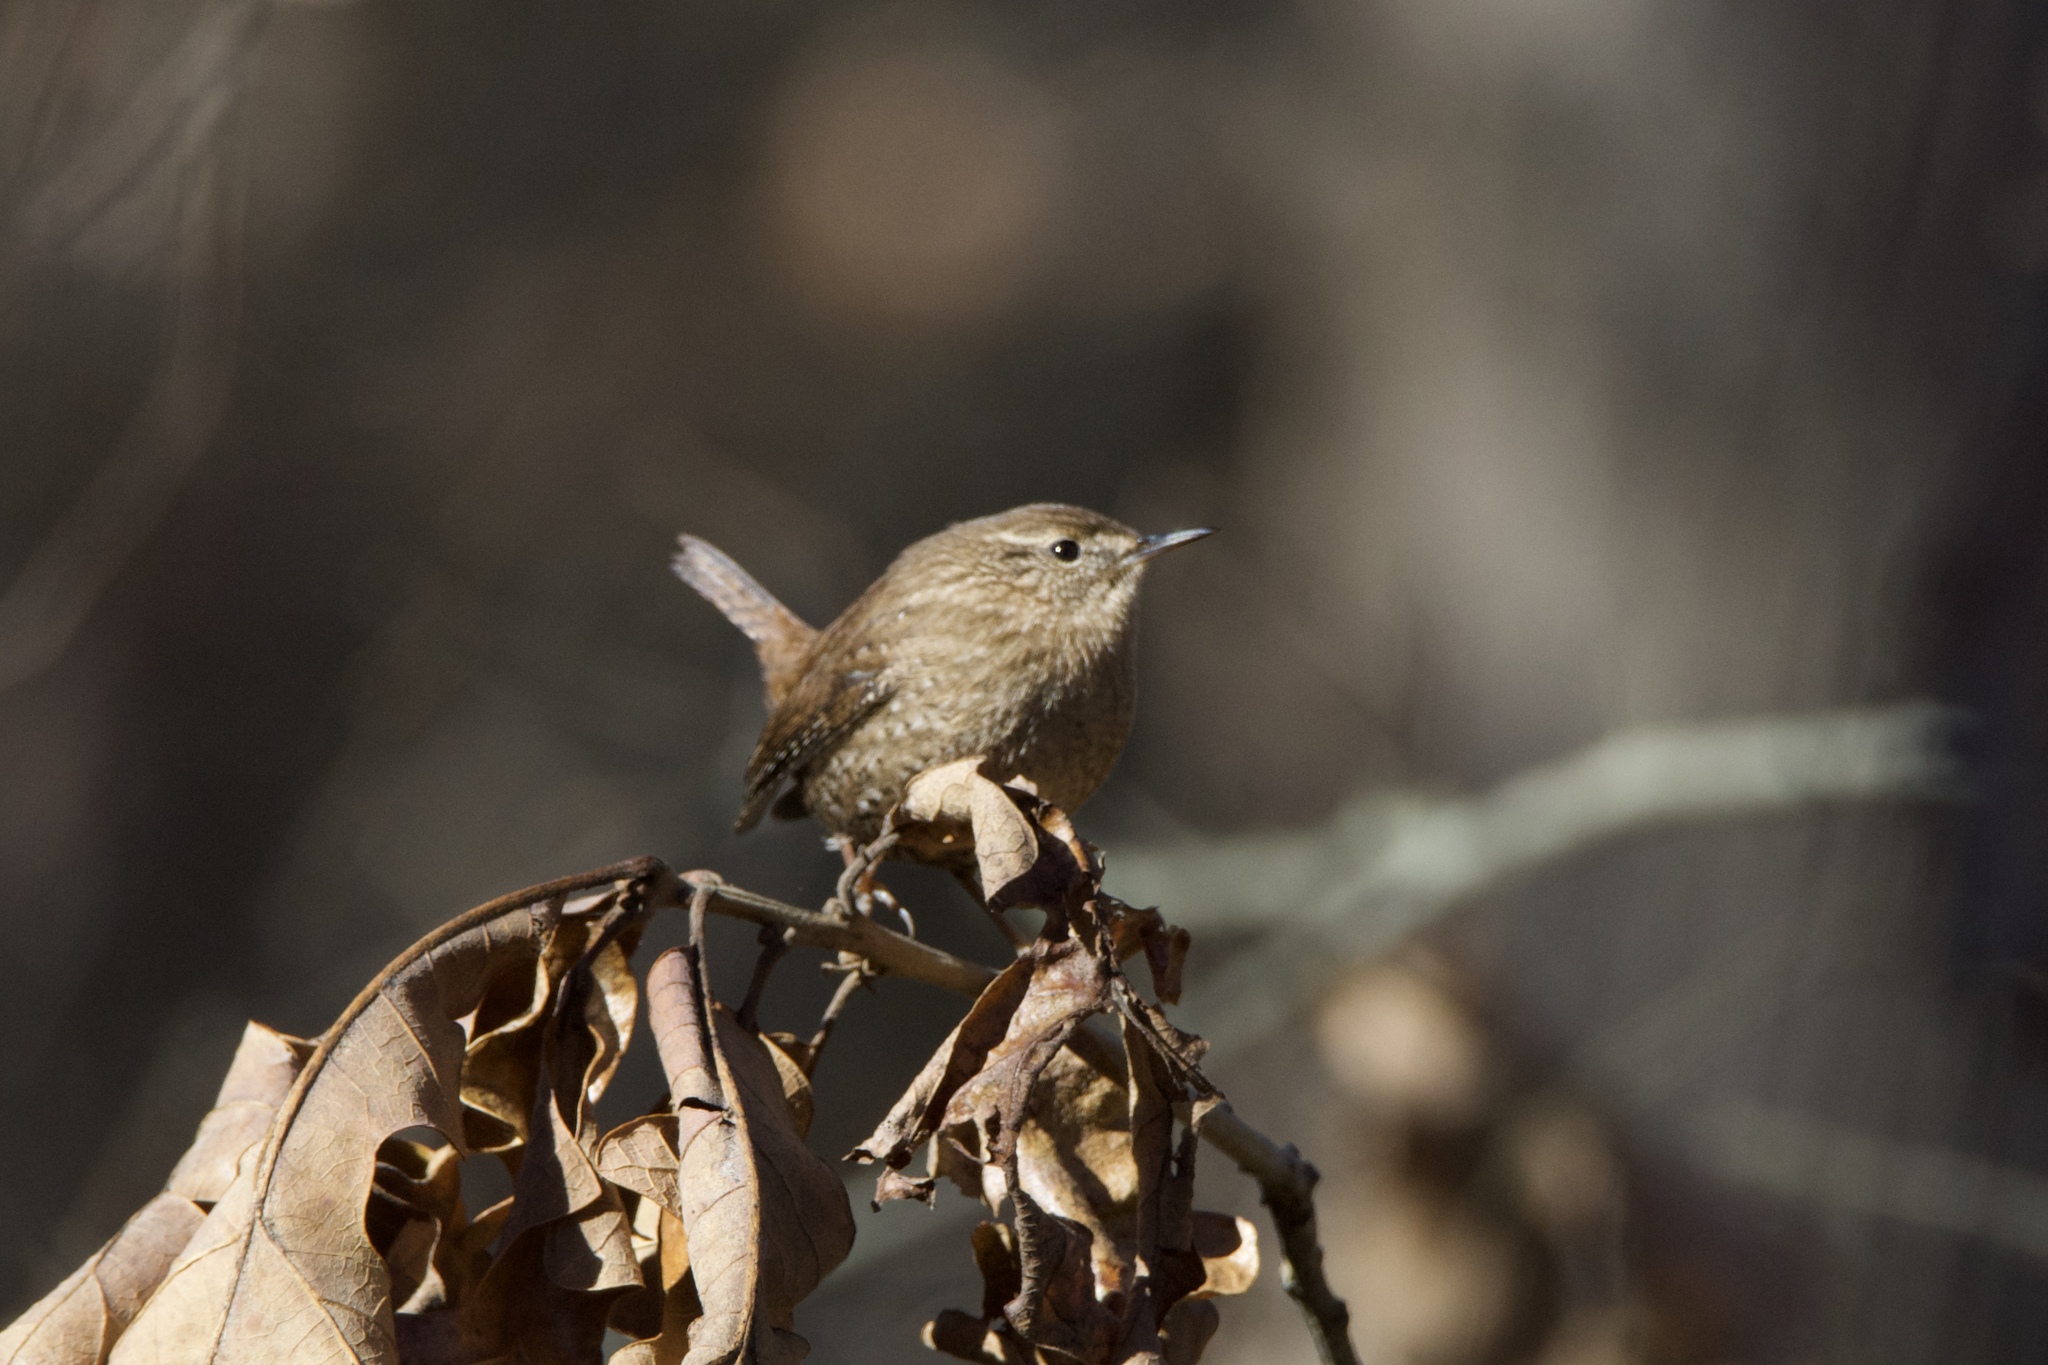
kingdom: Animalia
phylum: Chordata
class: Aves
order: Passeriformes
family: Troglodytidae
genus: Troglodytes
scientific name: Troglodytes hiemalis
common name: Winter wren
